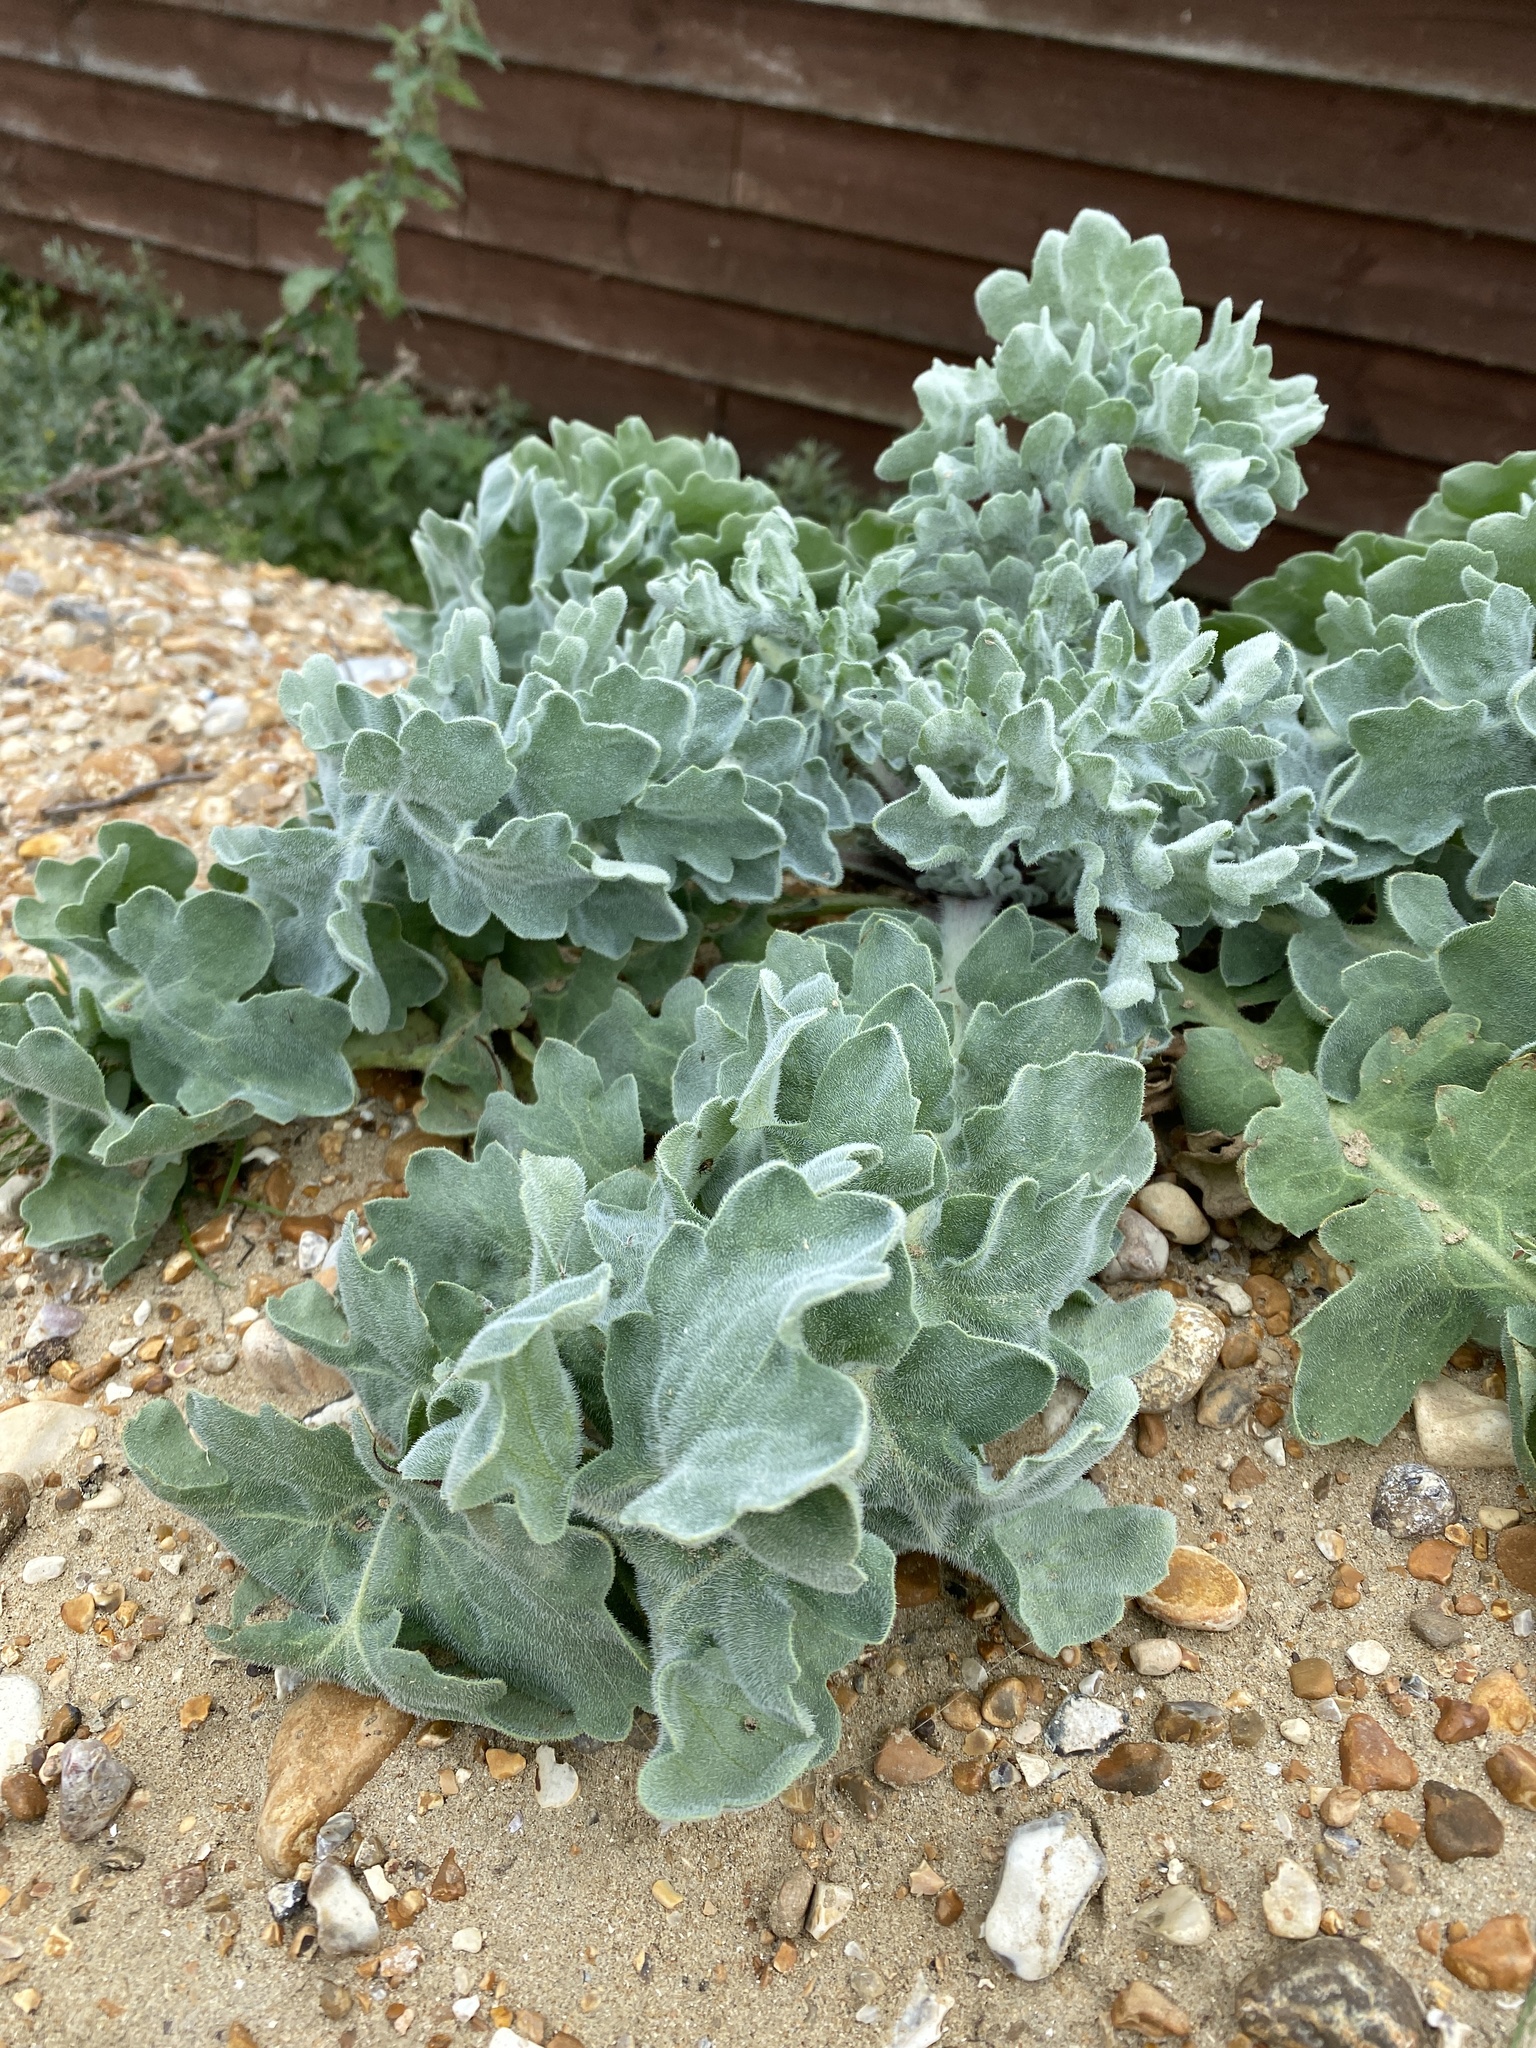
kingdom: Plantae
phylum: Tracheophyta
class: Magnoliopsida
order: Ranunculales
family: Papaveraceae
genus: Glaucium
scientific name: Glaucium flavum
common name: Yellow horned-poppy
